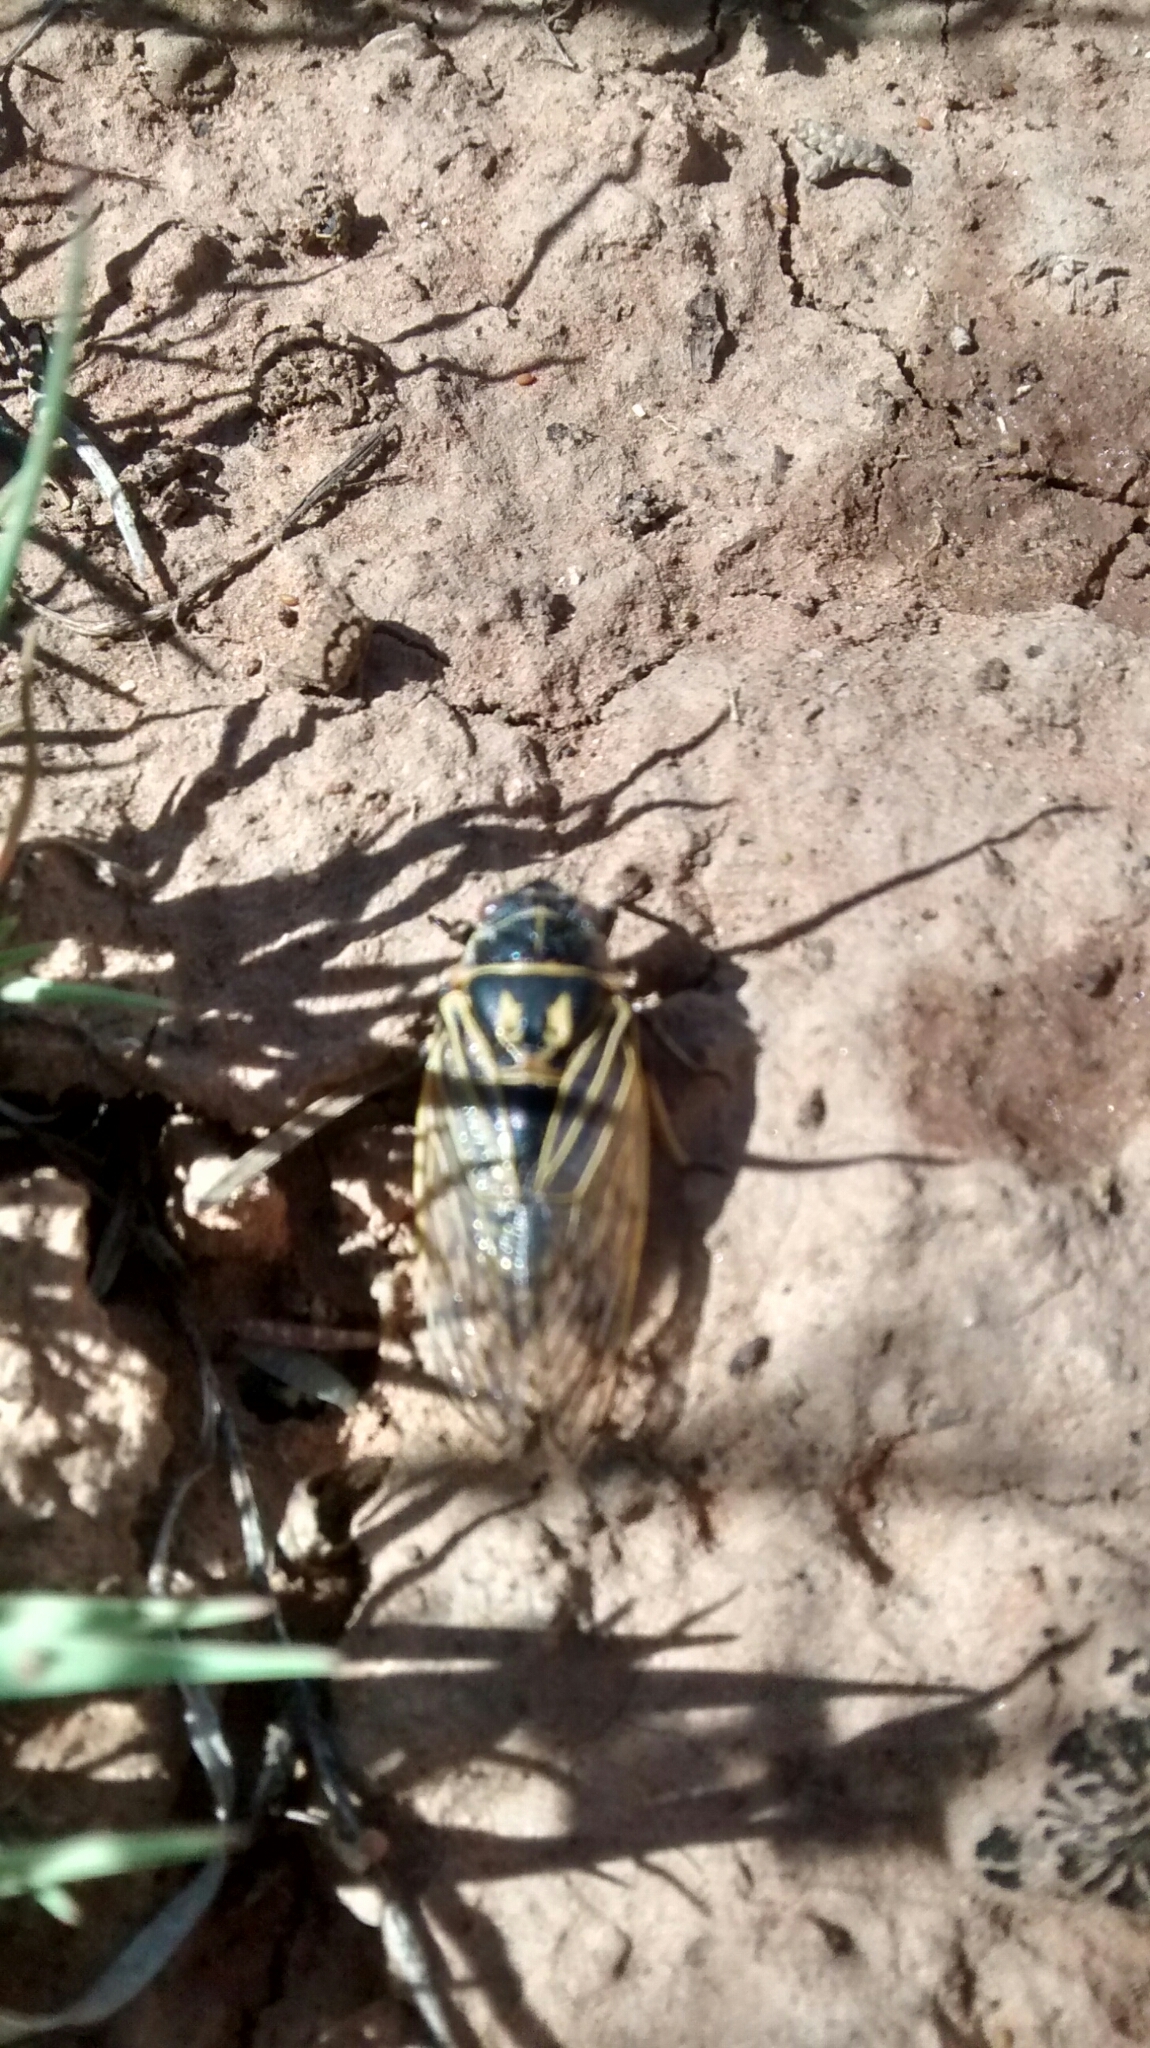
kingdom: Animalia
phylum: Arthropoda
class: Insecta
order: Hemiptera
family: Cicadidae
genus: Okanagana
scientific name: Okanagana synodica
